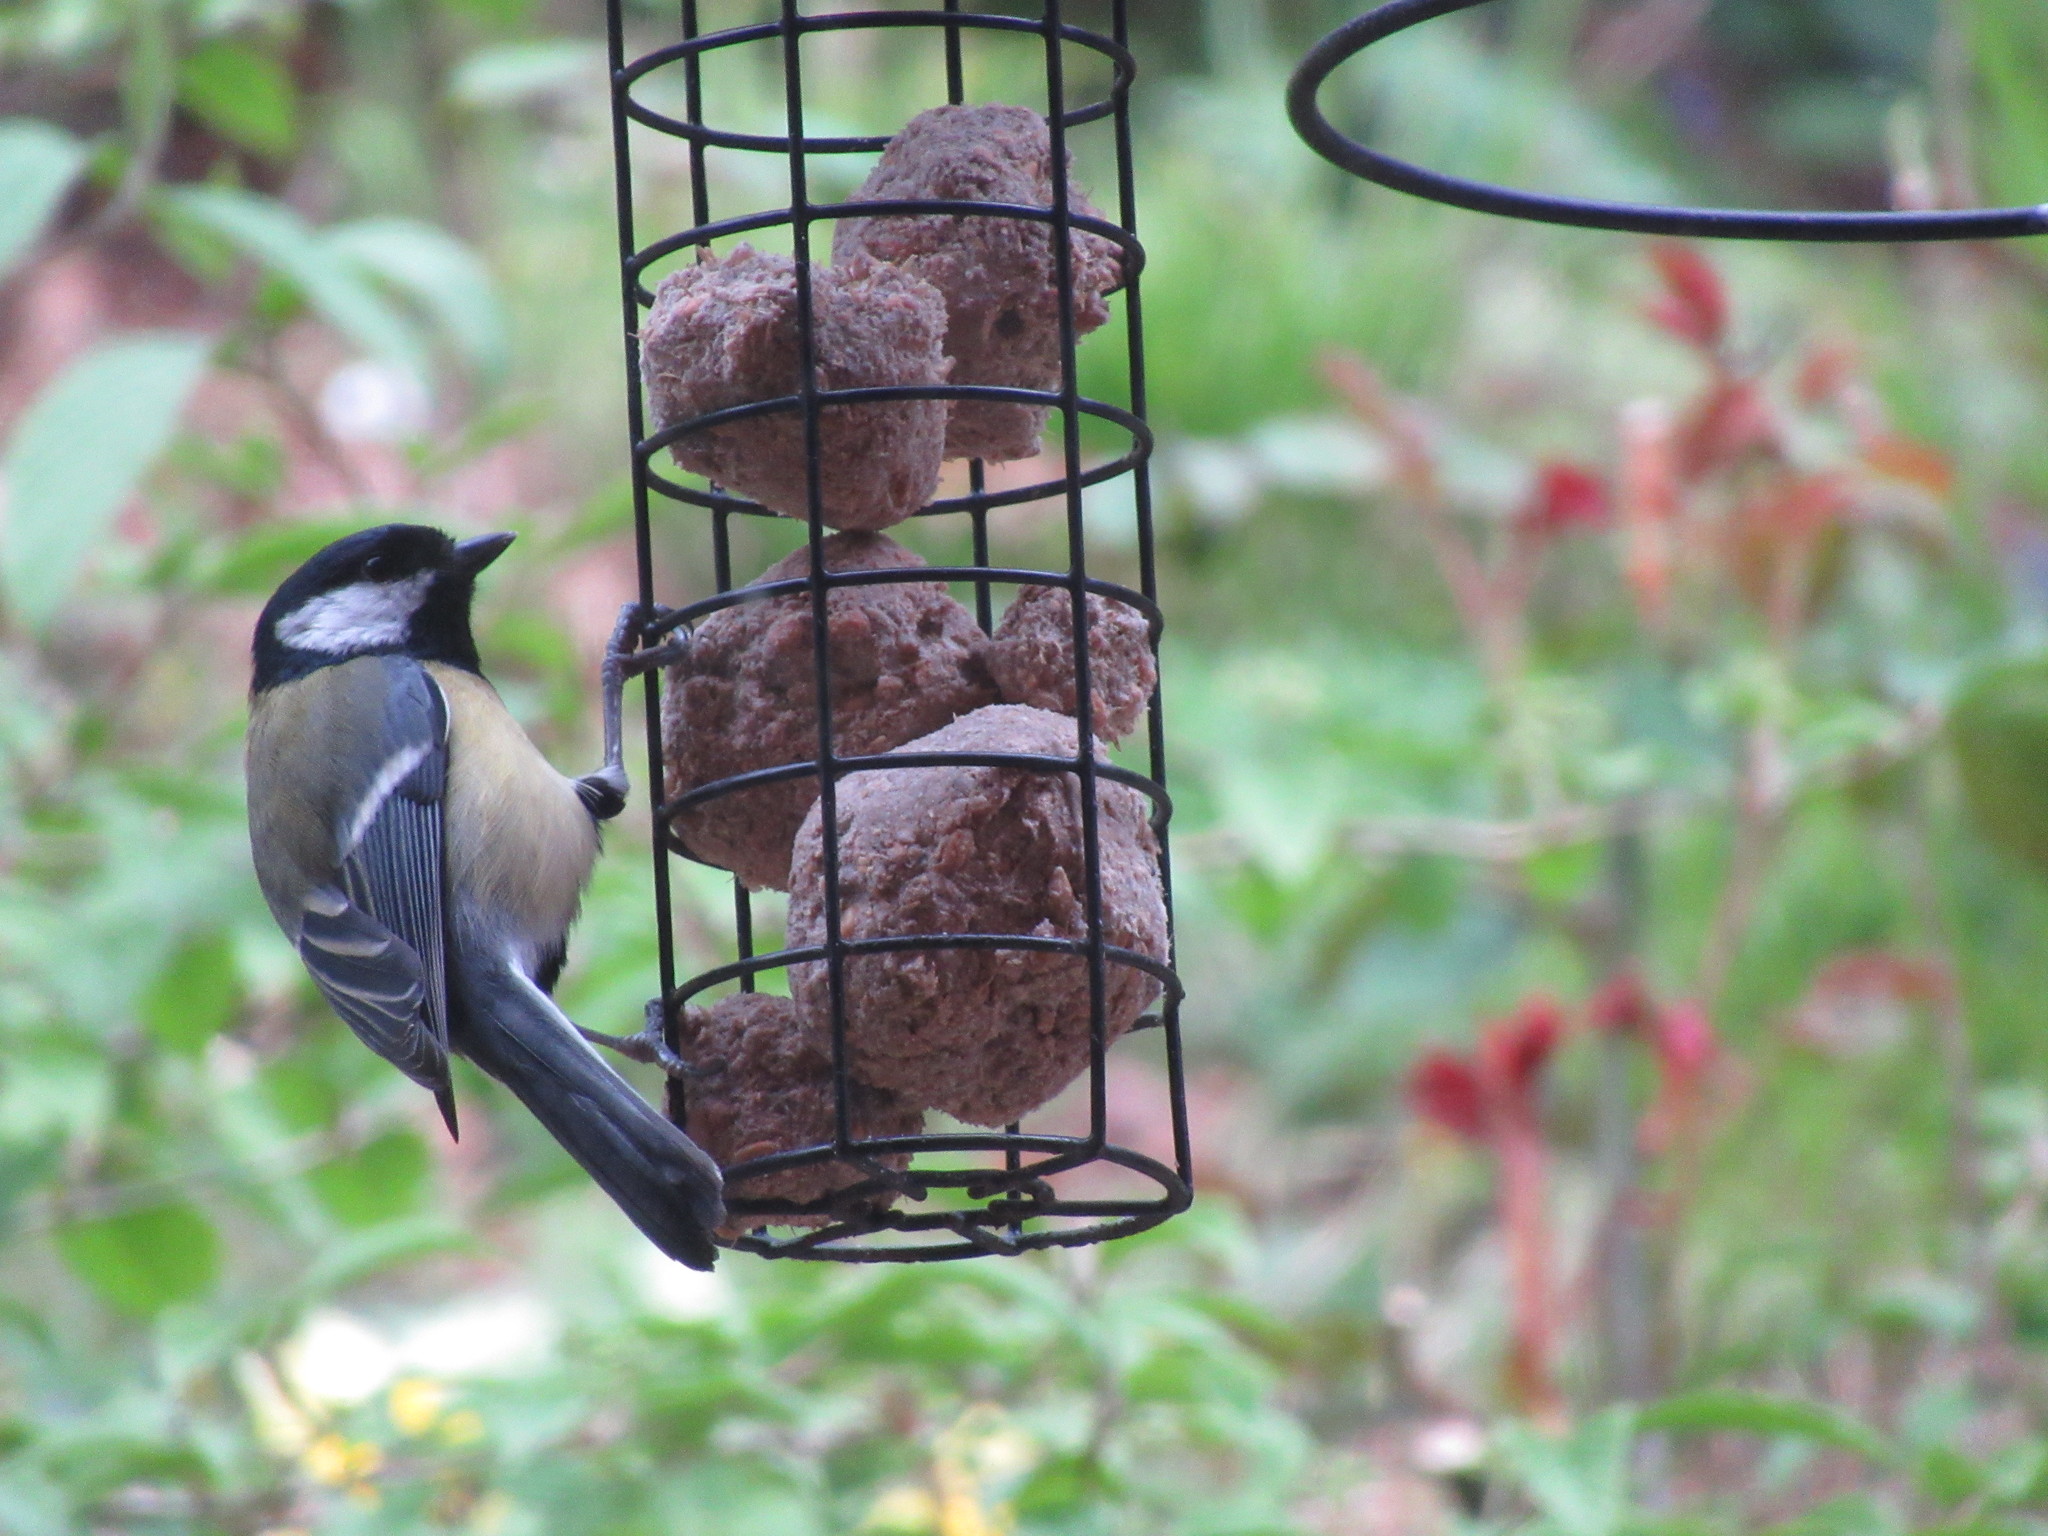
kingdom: Animalia
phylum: Chordata
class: Aves
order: Passeriformes
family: Paridae
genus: Parus
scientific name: Parus major
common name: Great tit
